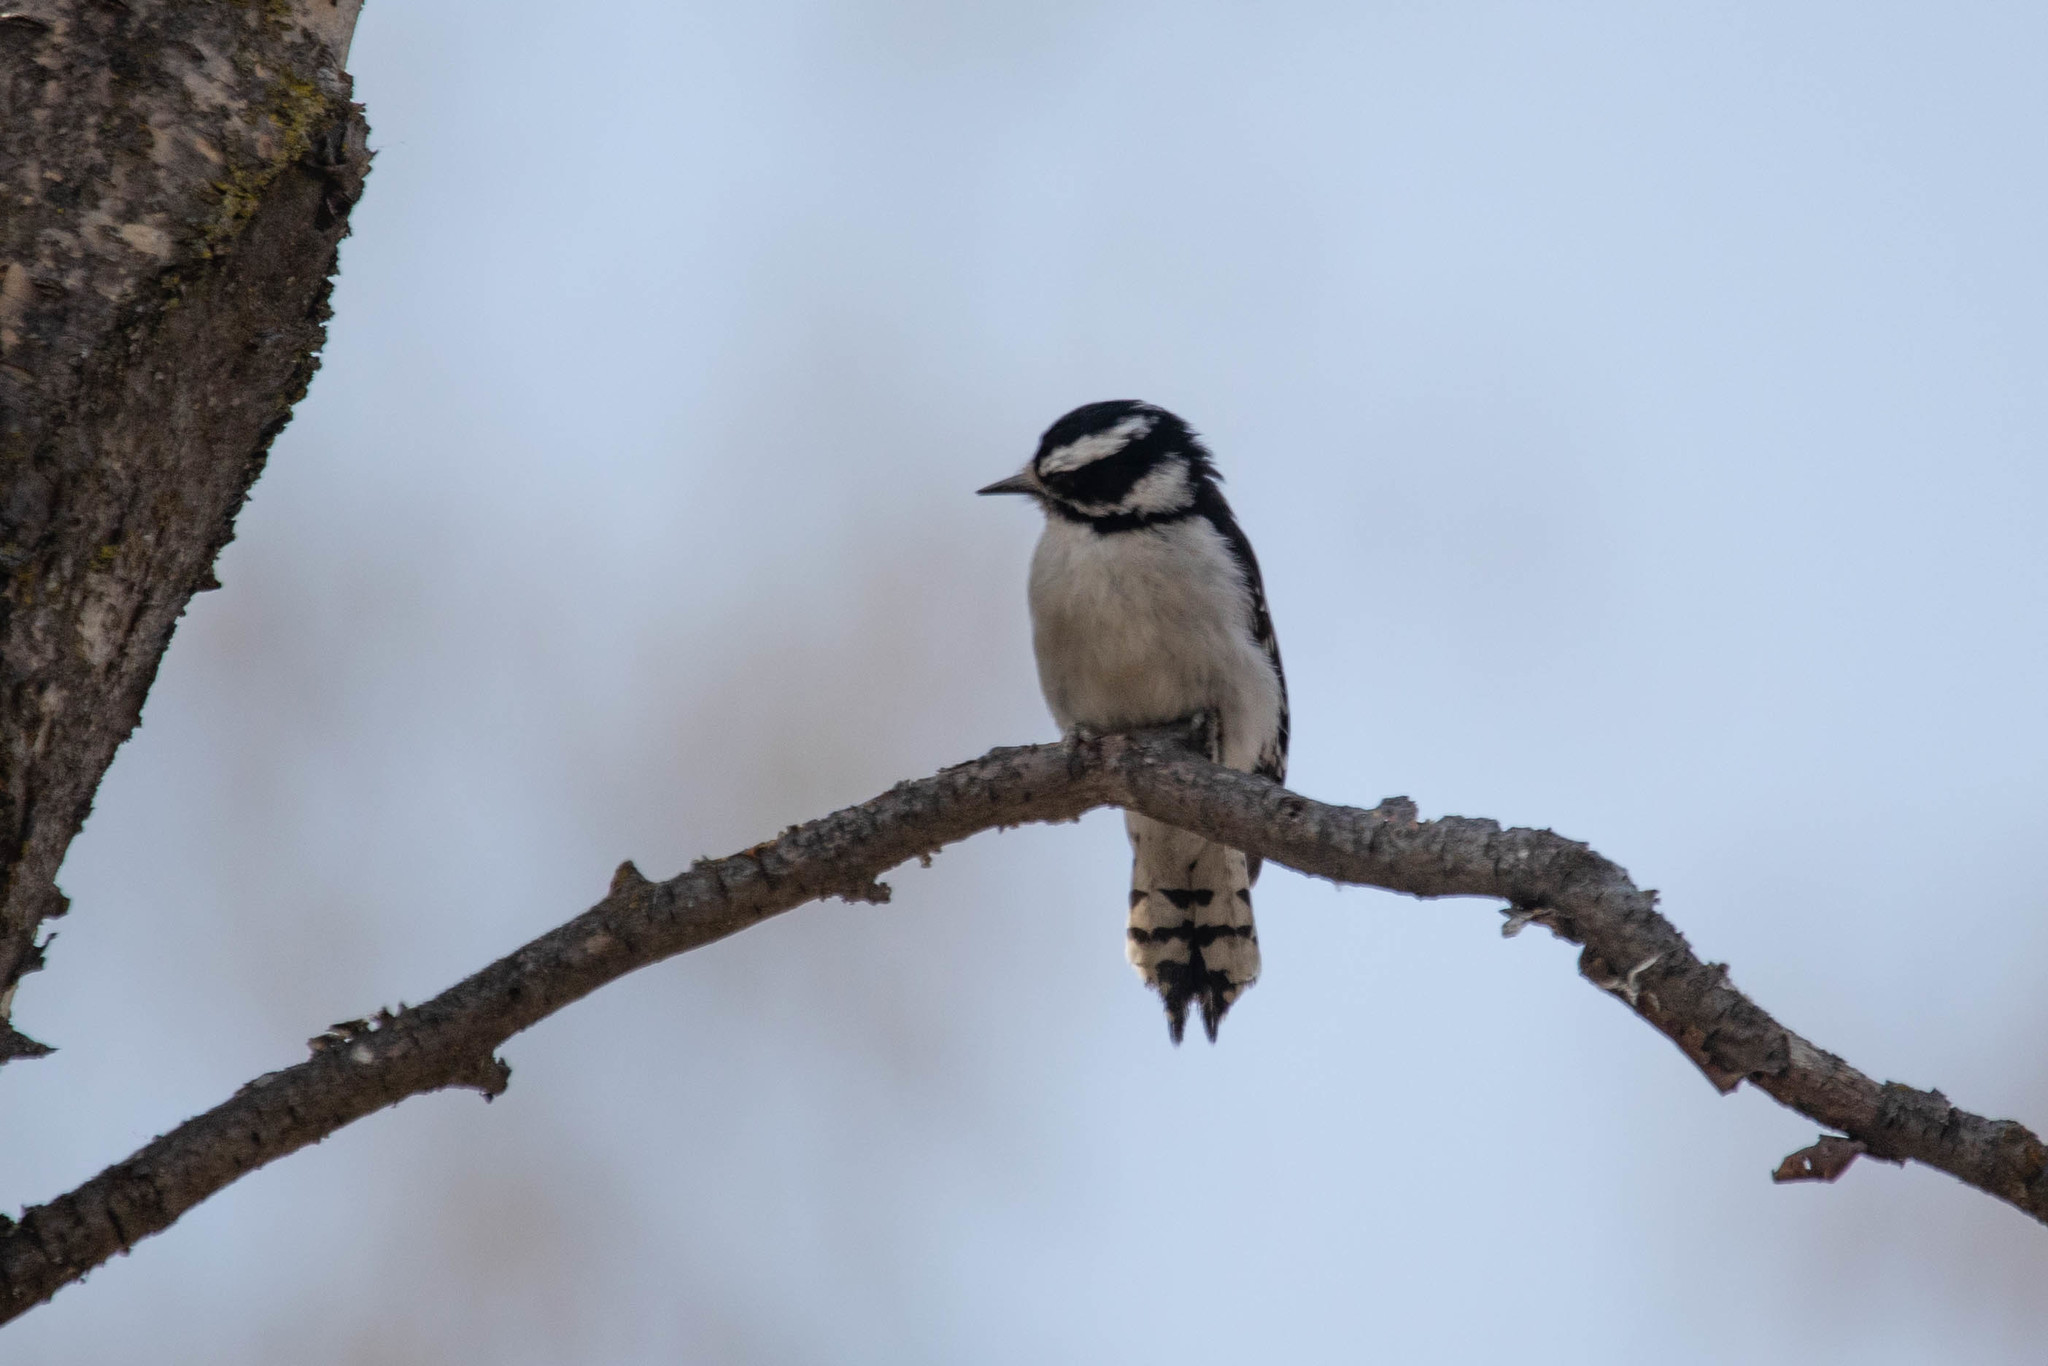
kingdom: Animalia
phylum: Chordata
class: Aves
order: Piciformes
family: Picidae
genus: Dryobates
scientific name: Dryobates pubescens
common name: Downy woodpecker
